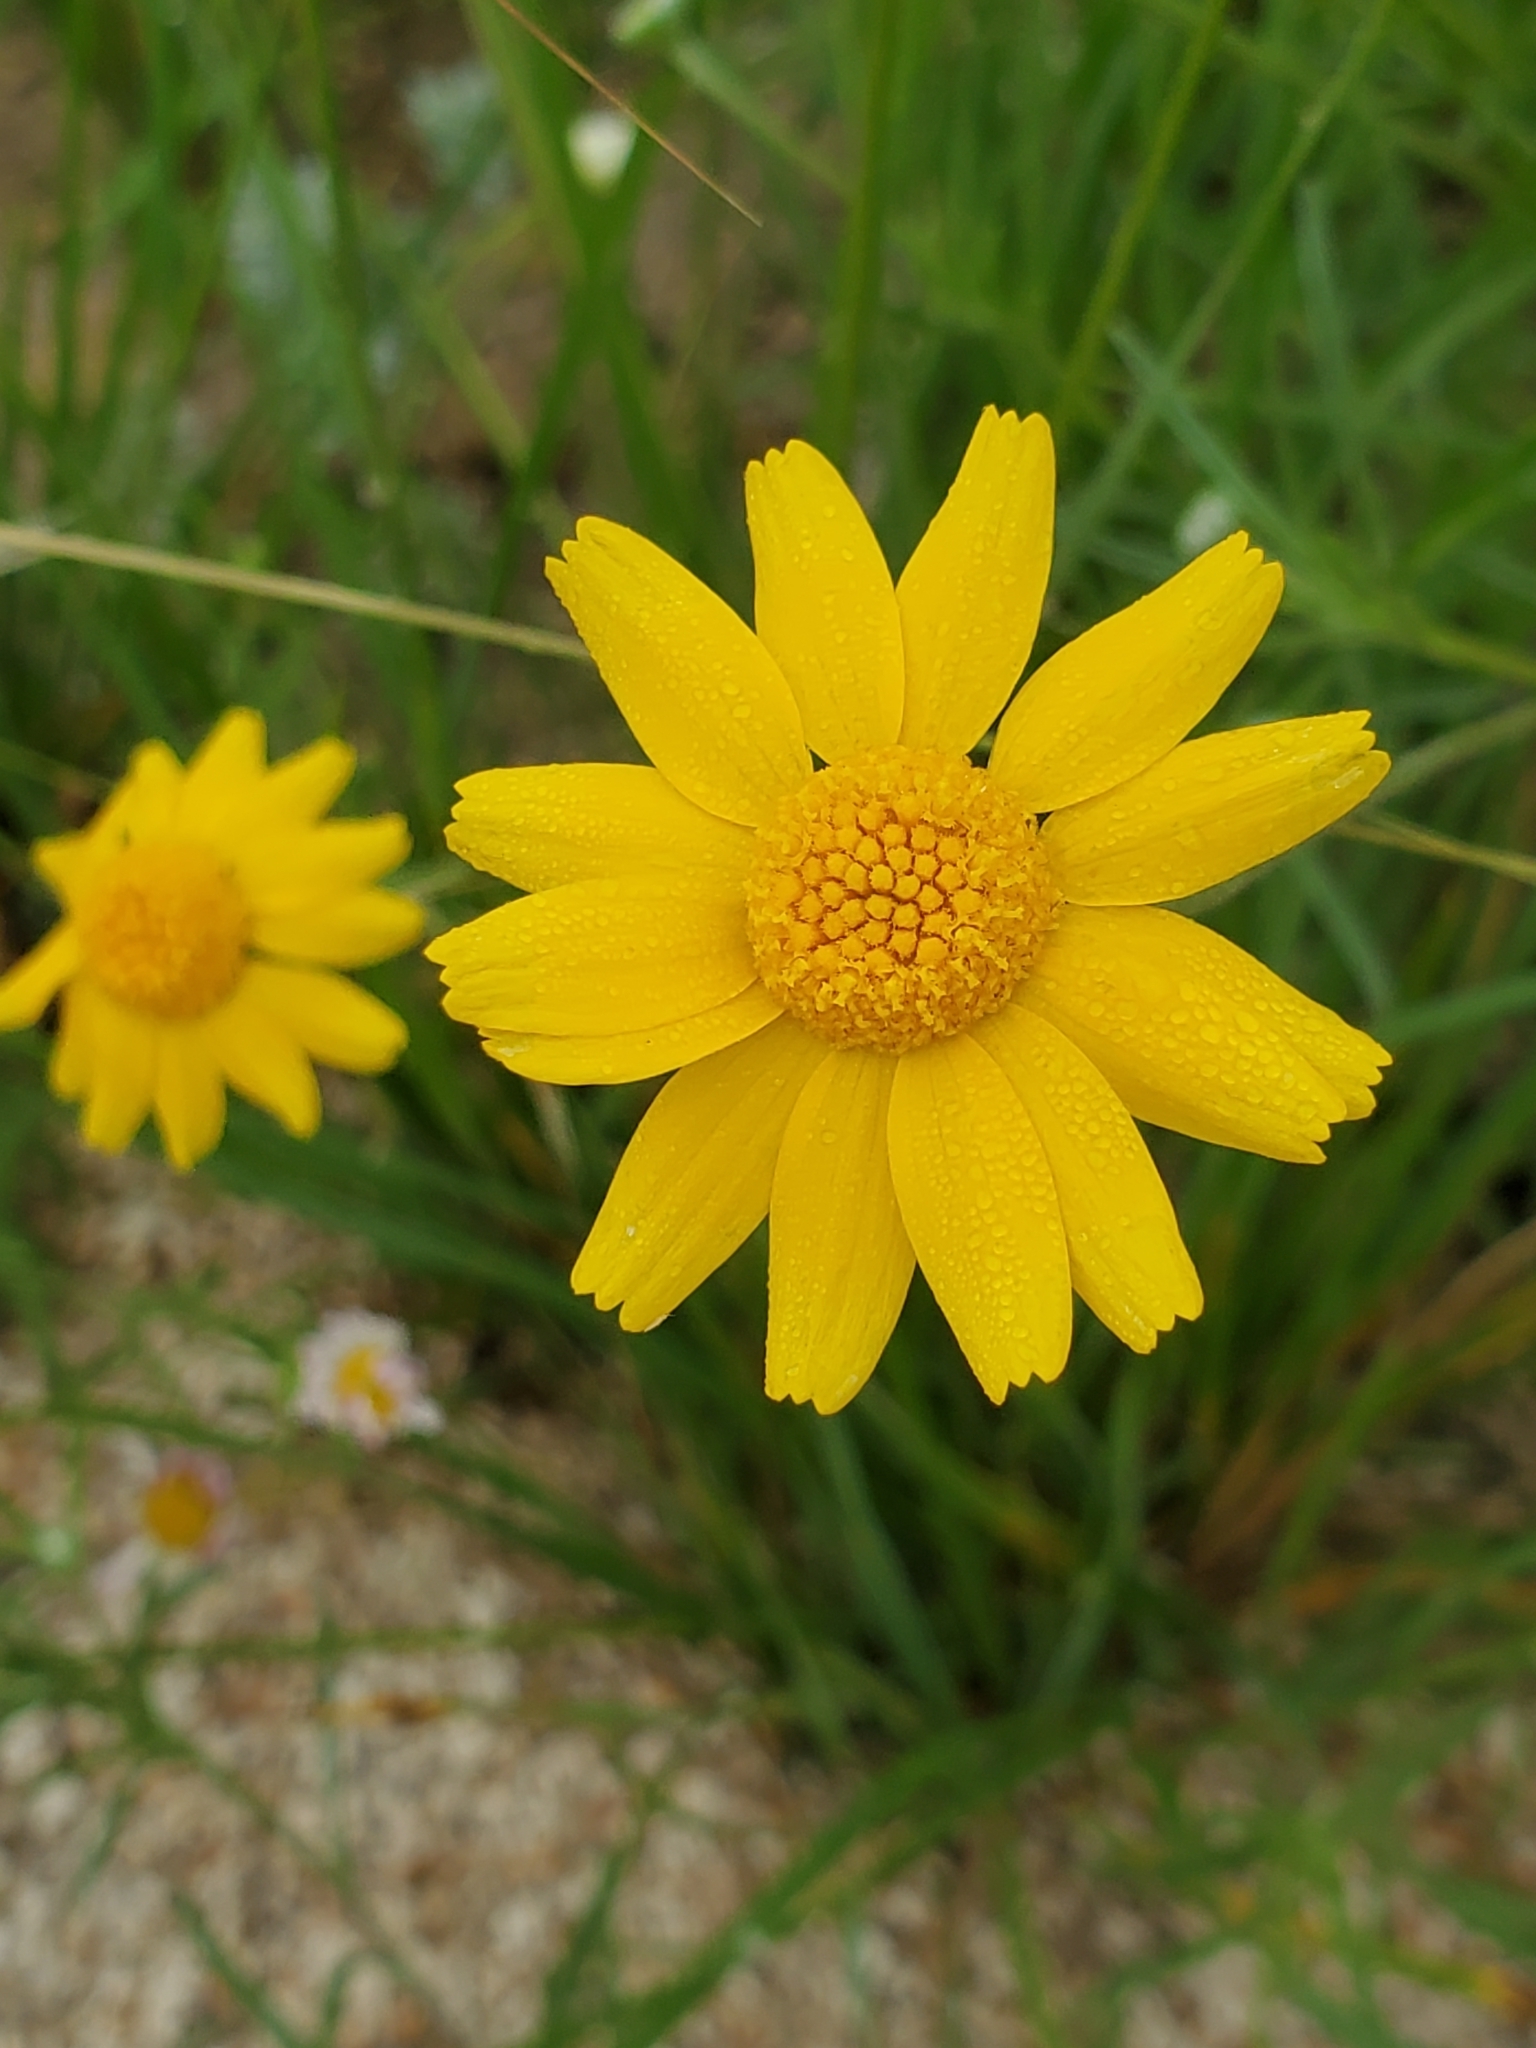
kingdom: Plantae
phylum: Tracheophyta
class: Magnoliopsida
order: Asterales
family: Asteraceae
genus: Tetraneuris
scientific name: Tetraneuris linearifolia
